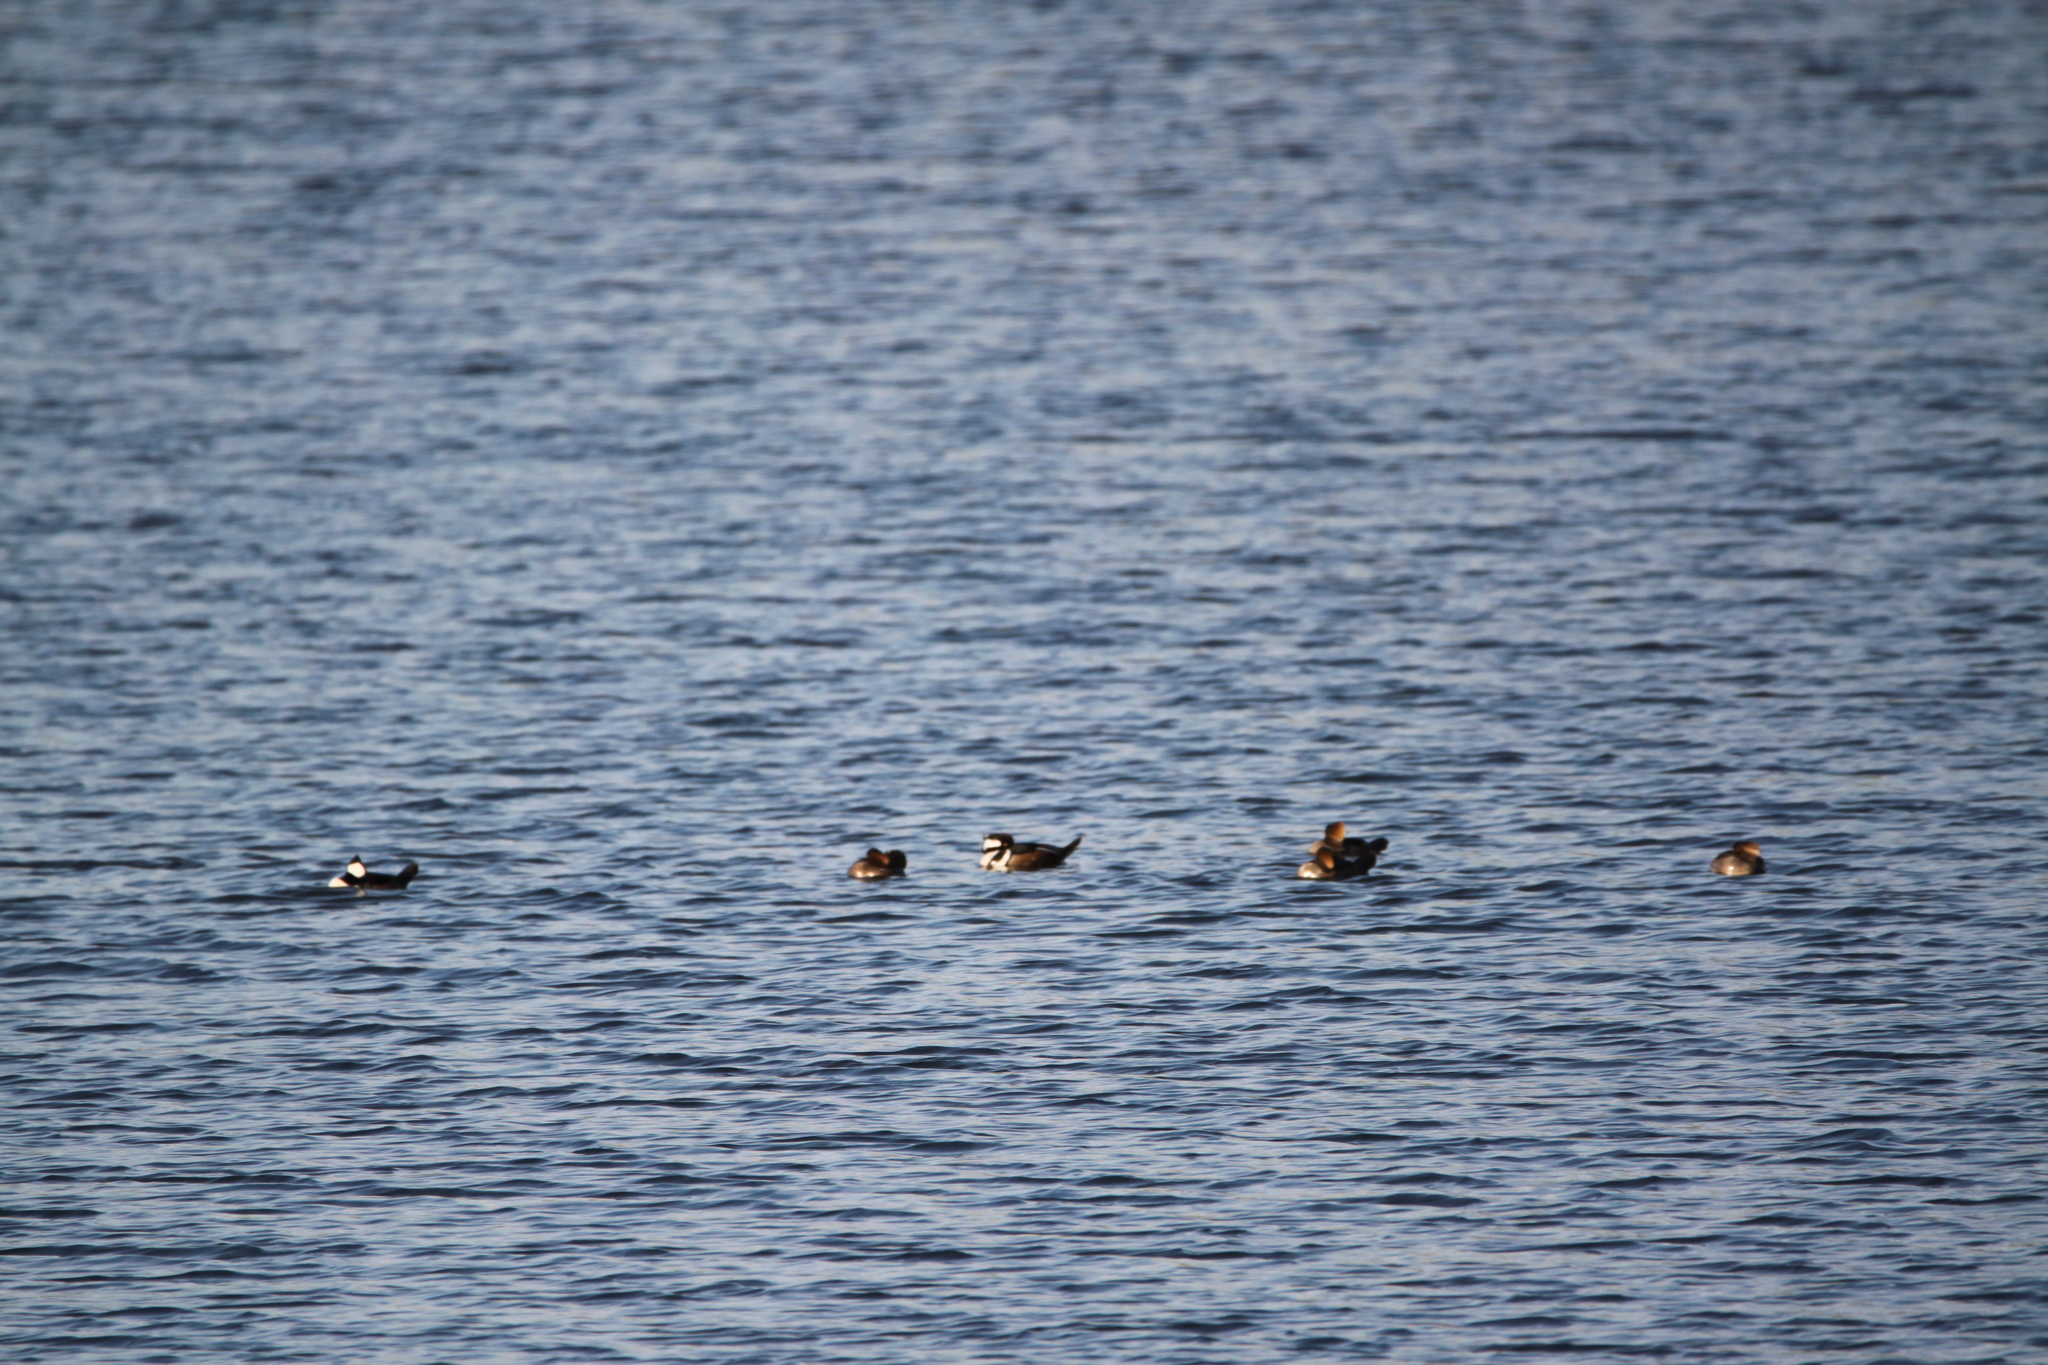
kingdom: Animalia
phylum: Chordata
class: Aves
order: Anseriformes
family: Anatidae
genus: Lophodytes
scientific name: Lophodytes cucullatus
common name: Hooded merganser
